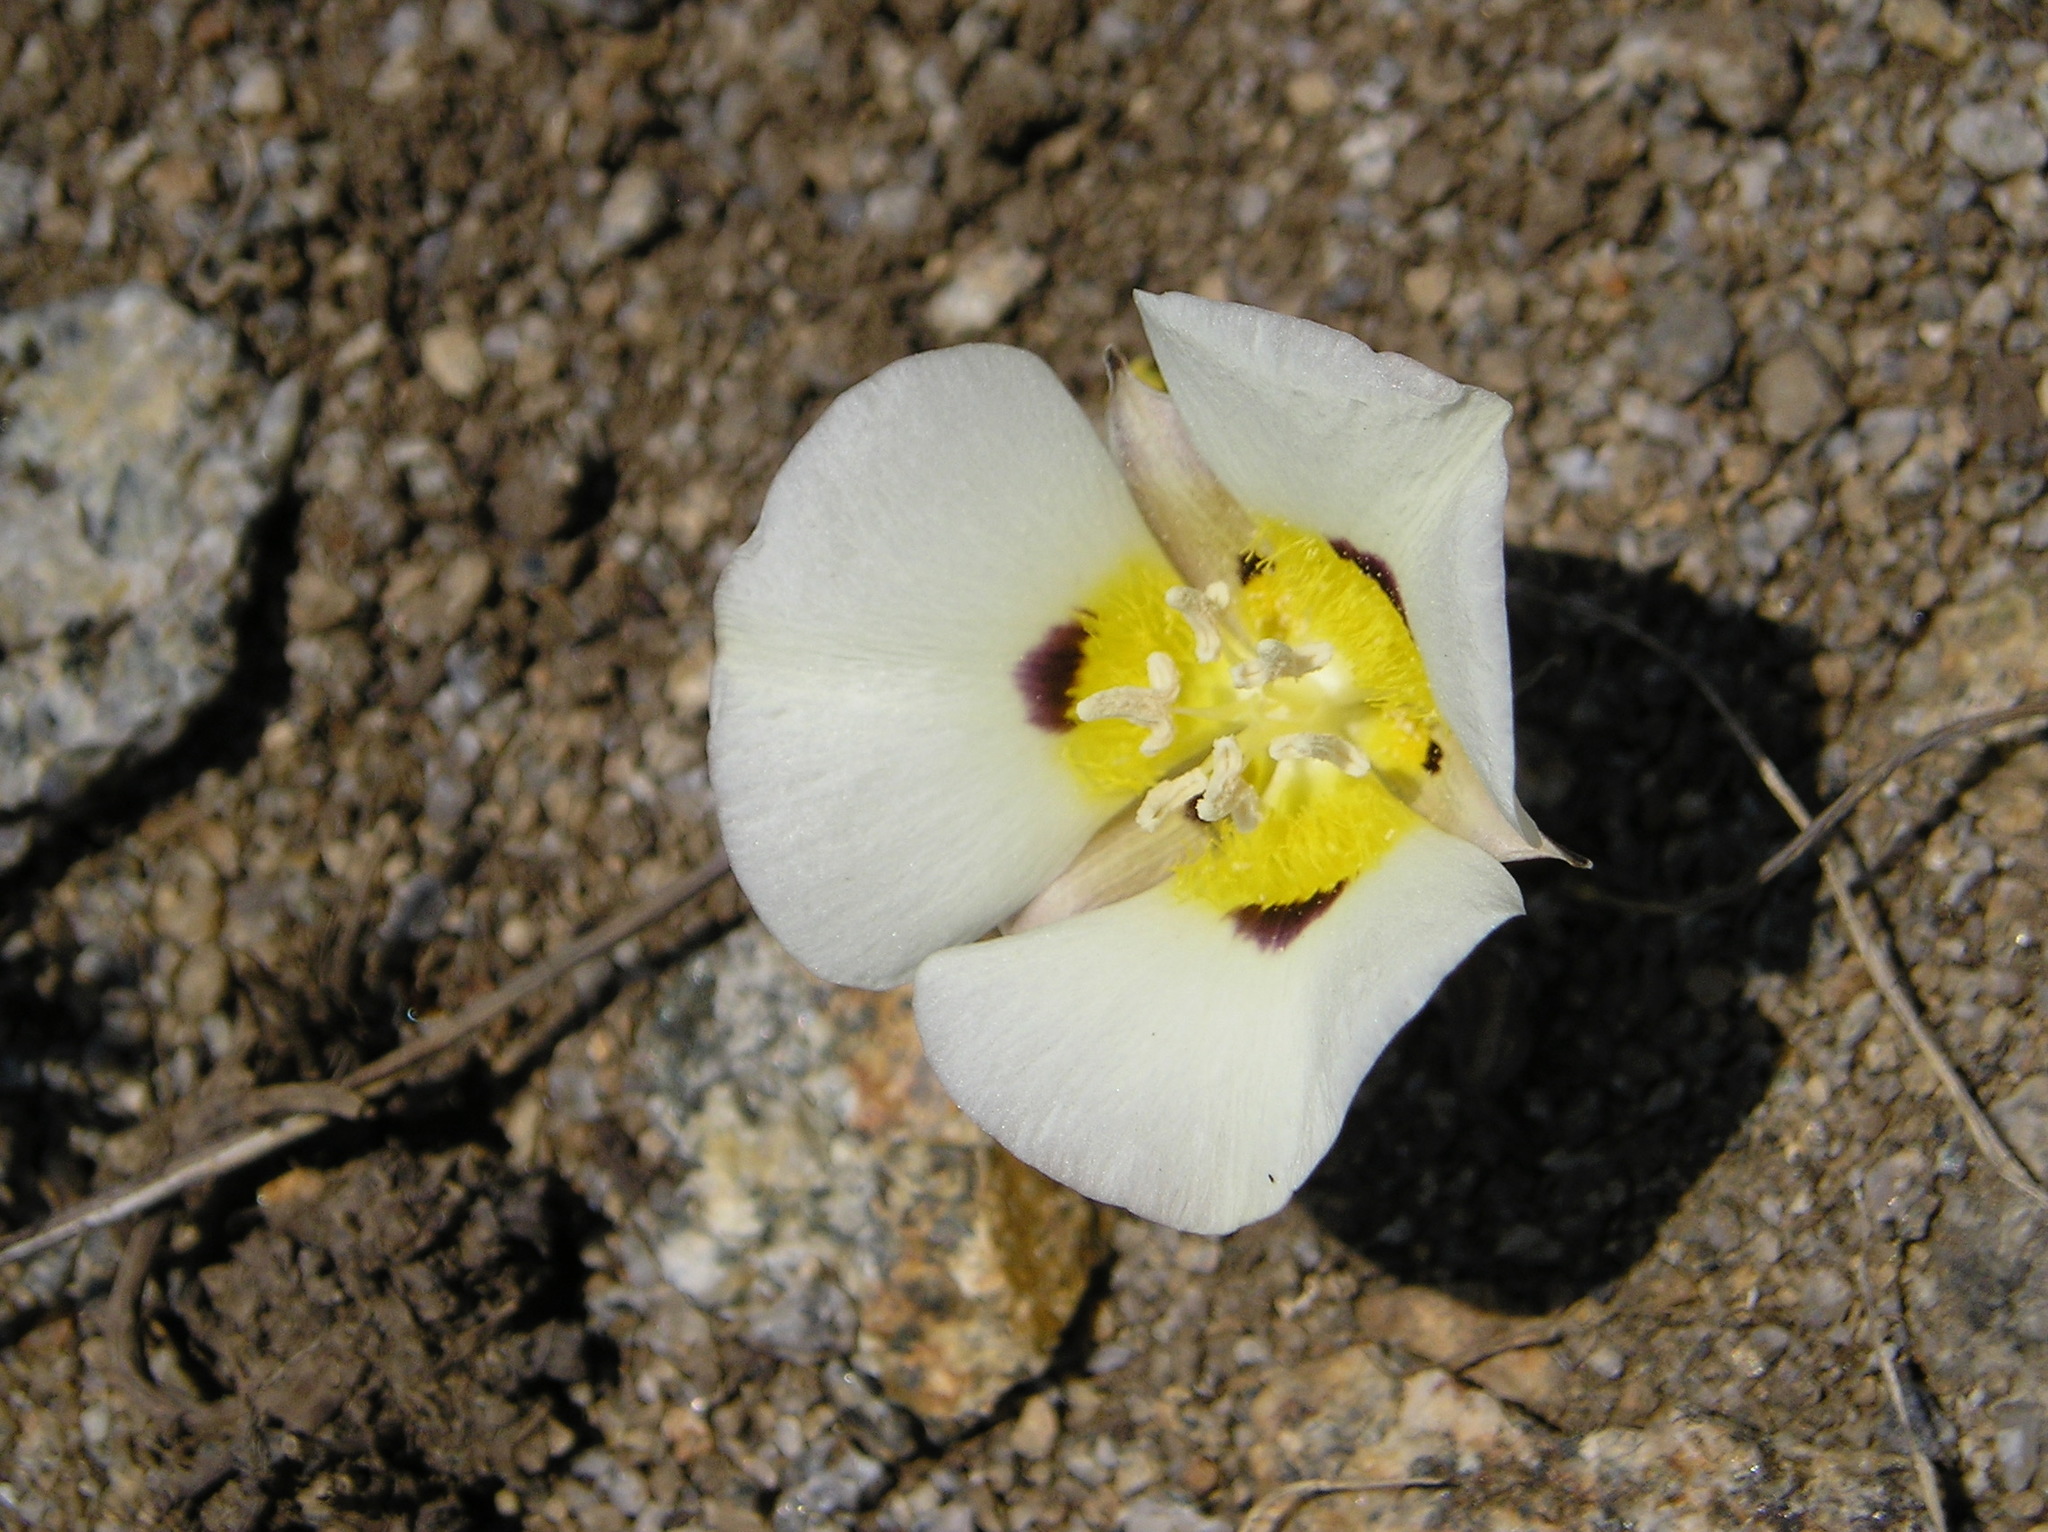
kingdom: Plantae
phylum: Tracheophyta
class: Liliopsida
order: Liliales
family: Liliaceae
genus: Calochortus
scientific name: Calochortus leichtlinii
